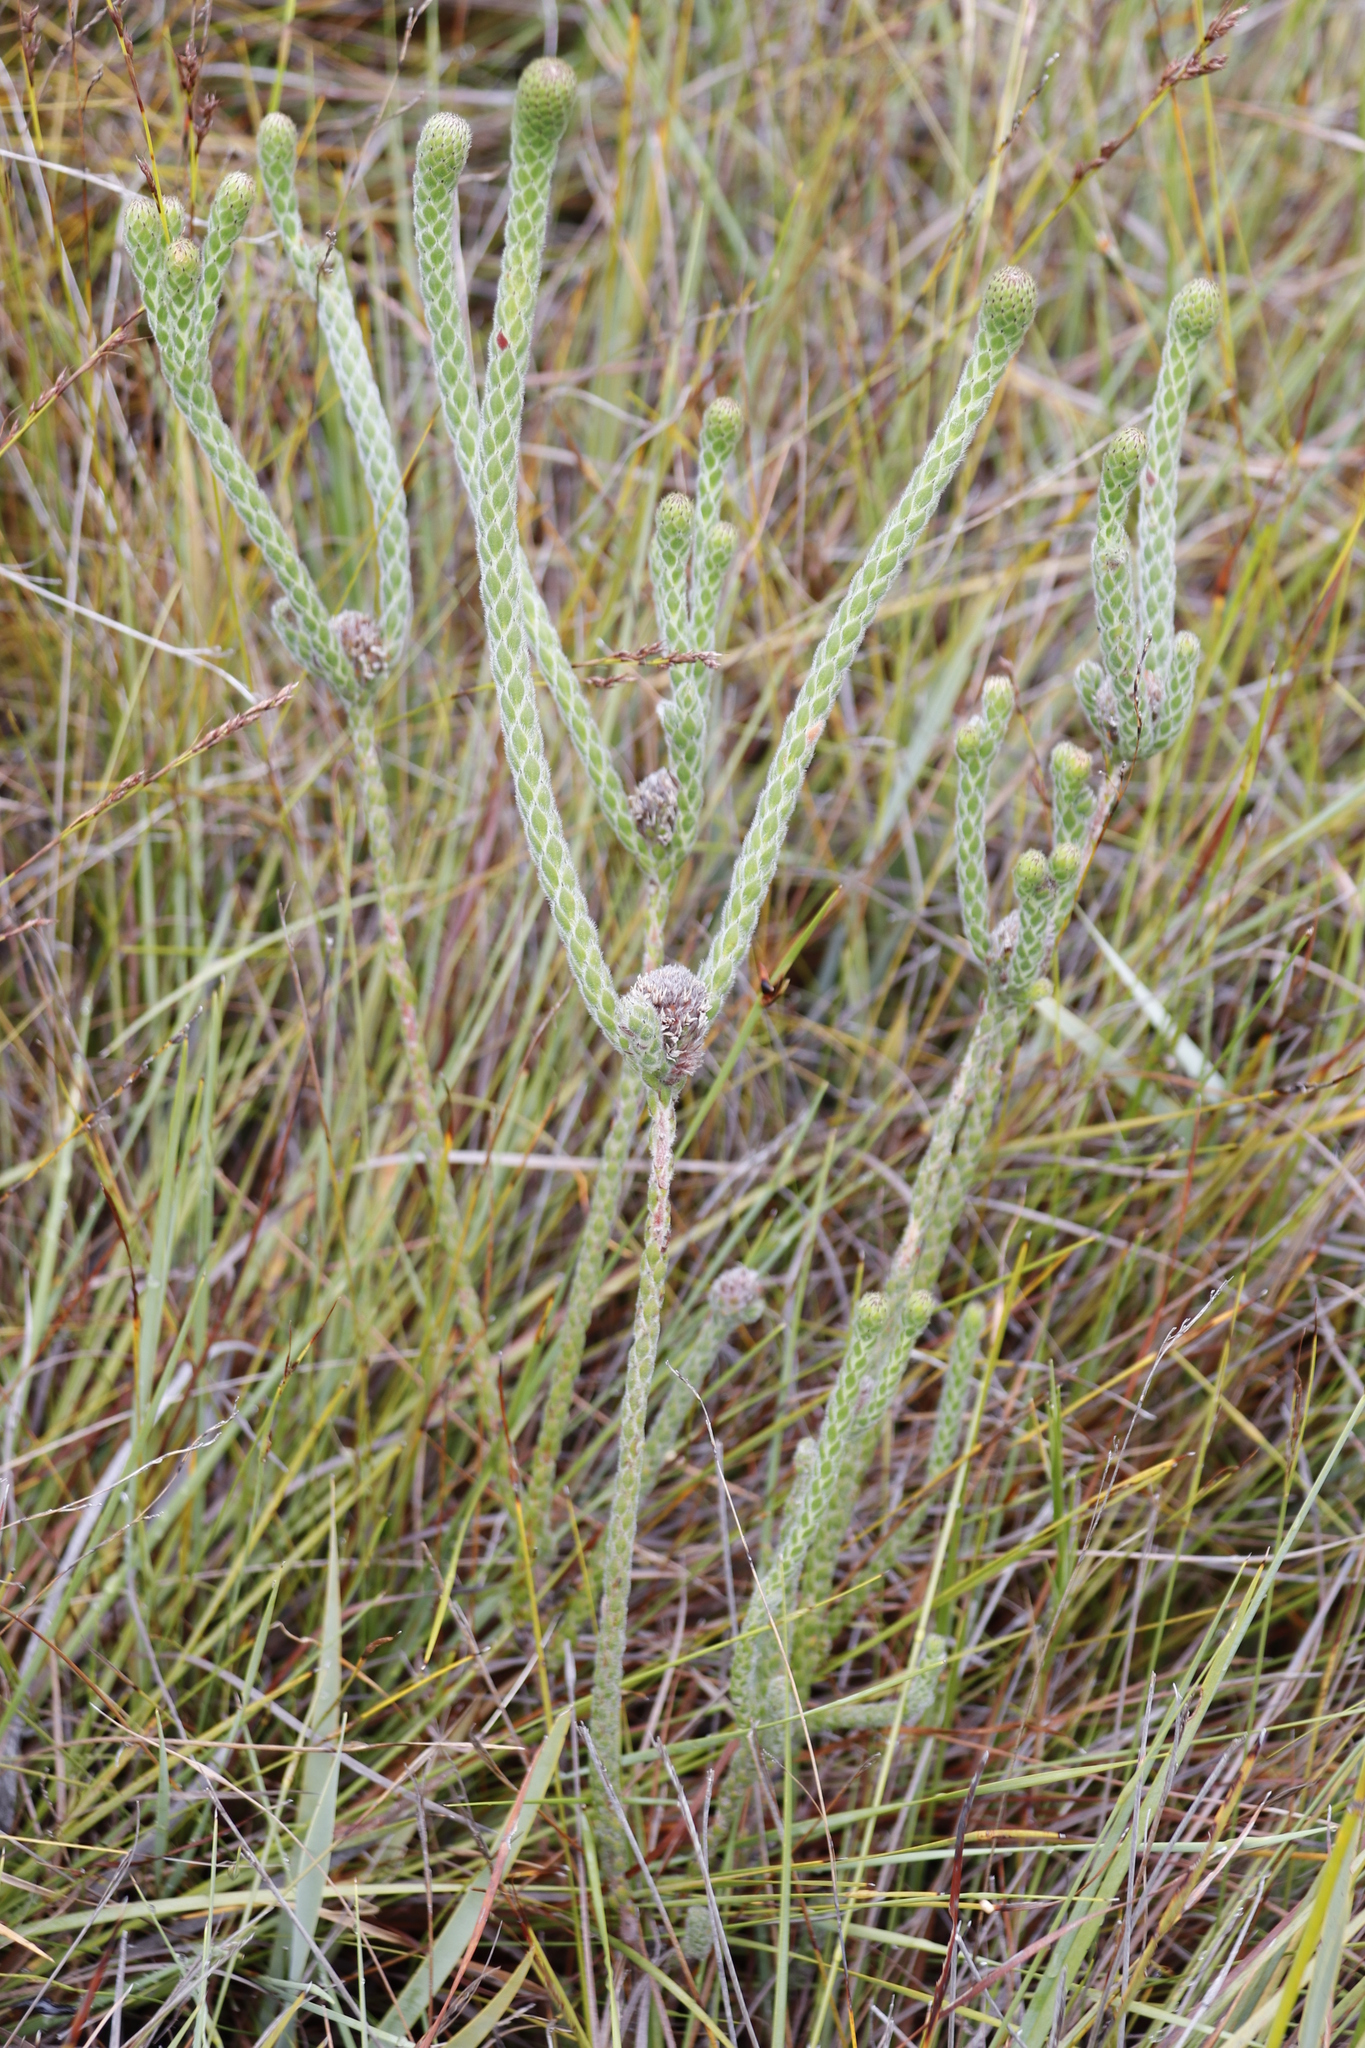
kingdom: Plantae
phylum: Tracheophyta
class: Magnoliopsida
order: Bruniales
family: Bruniaceae
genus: Brunia
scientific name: Brunia monogyna
